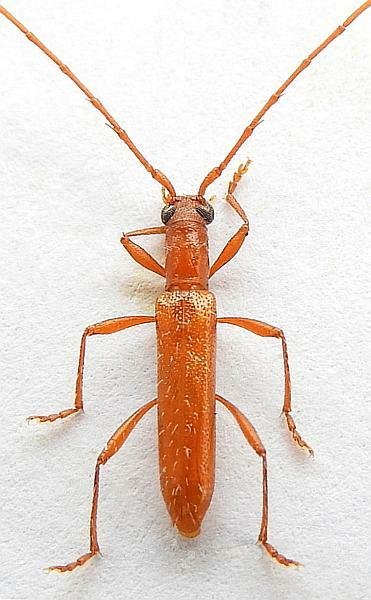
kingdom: Animalia
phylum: Arthropoda
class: Insecta
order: Coleoptera
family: Cerambycidae
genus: Psyrassa
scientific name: Psyrassa pertenuis
